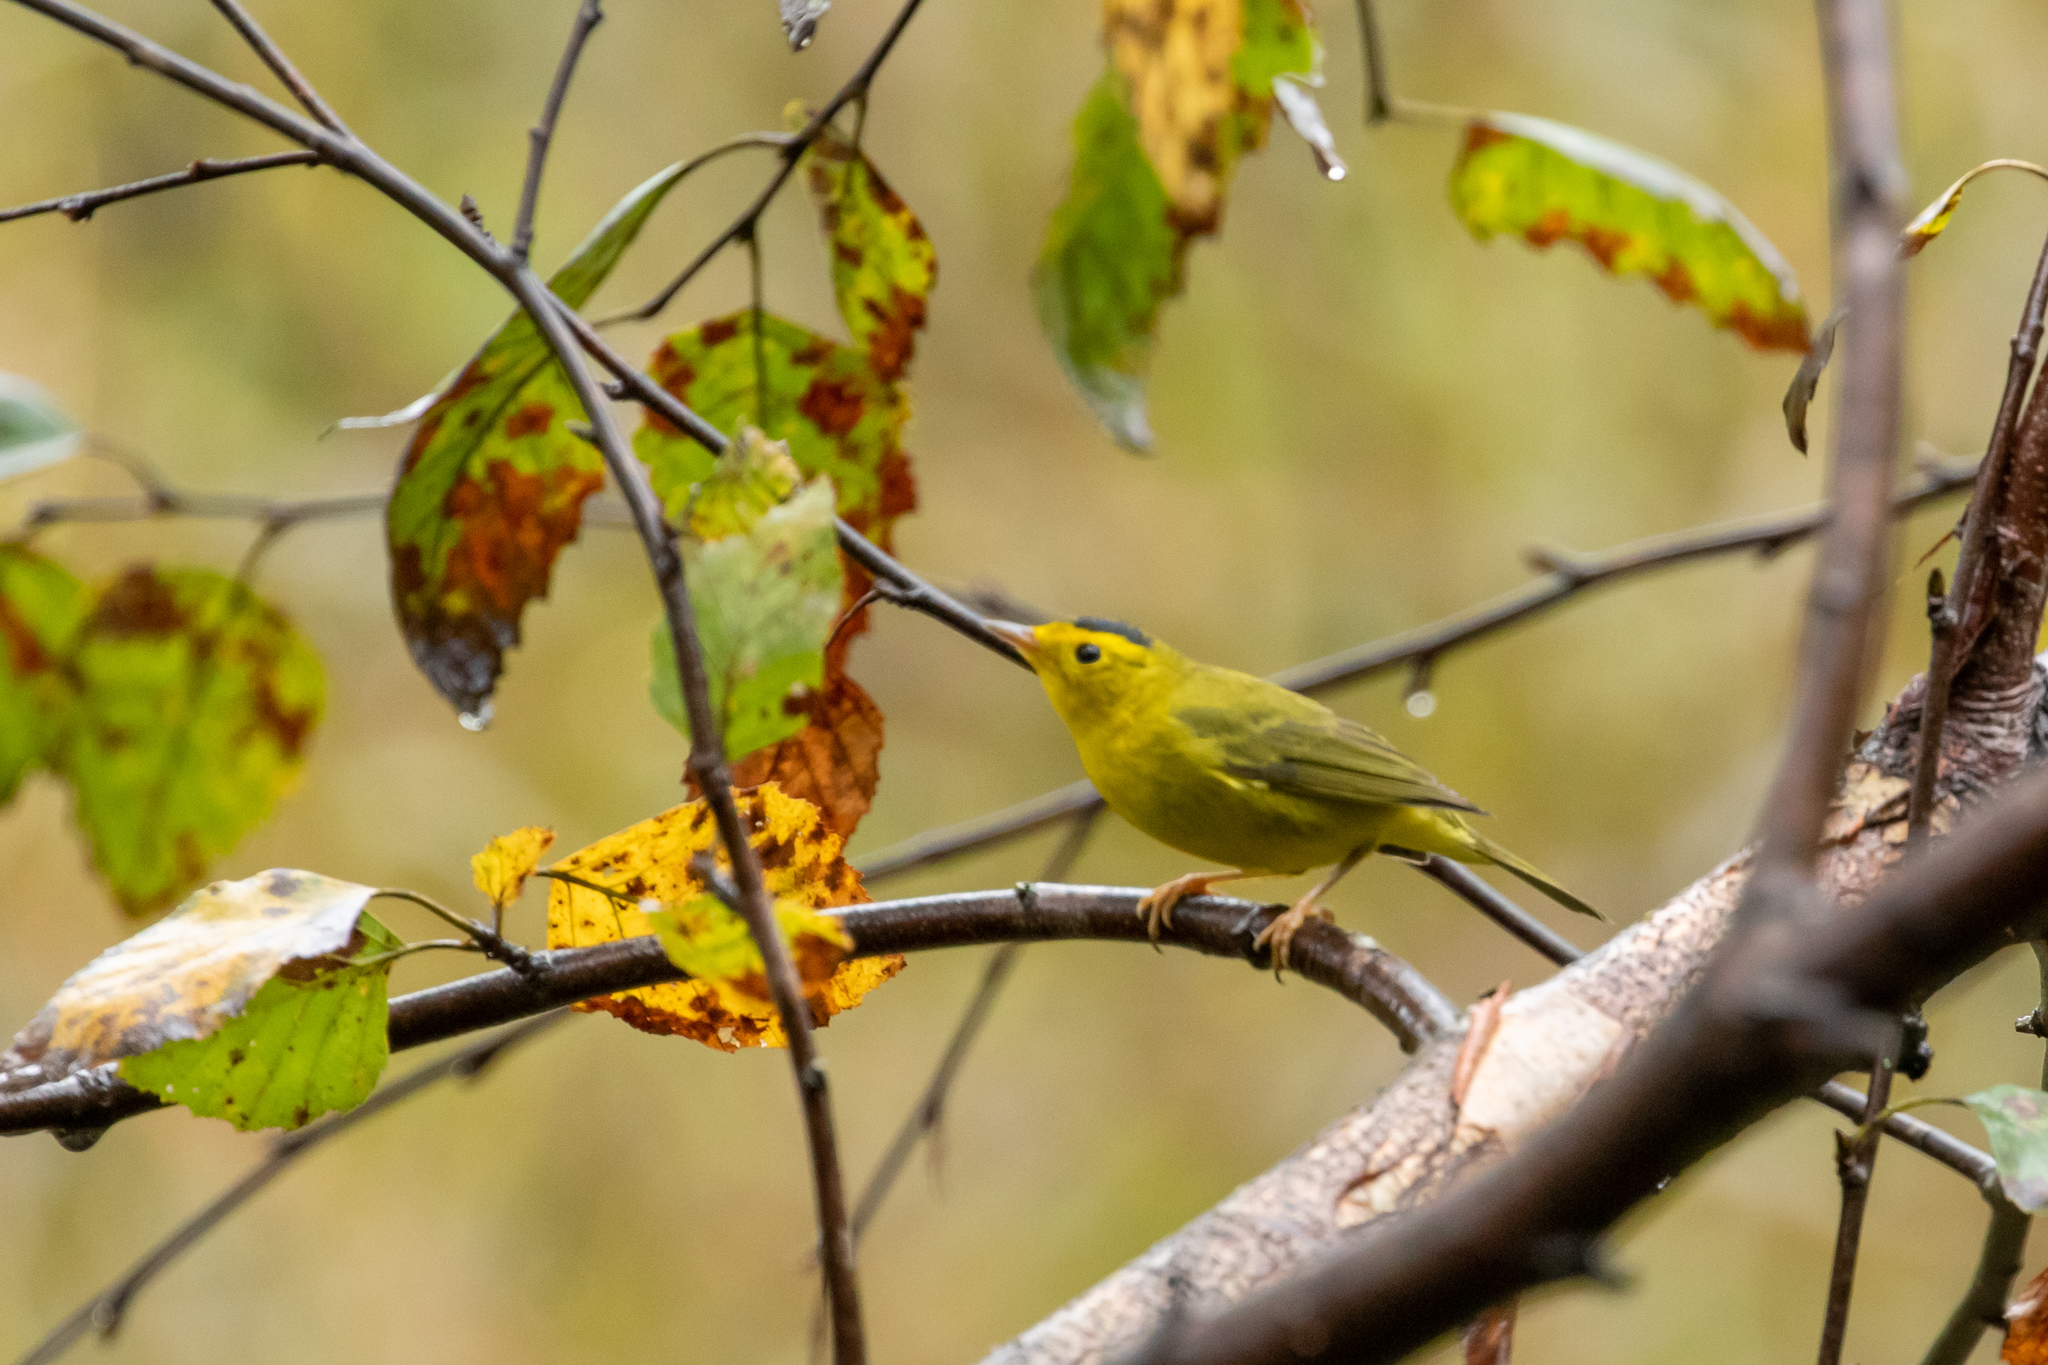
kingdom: Animalia
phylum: Chordata
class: Aves
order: Passeriformes
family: Parulidae
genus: Cardellina
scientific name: Cardellina pusilla
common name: Wilson's warbler
